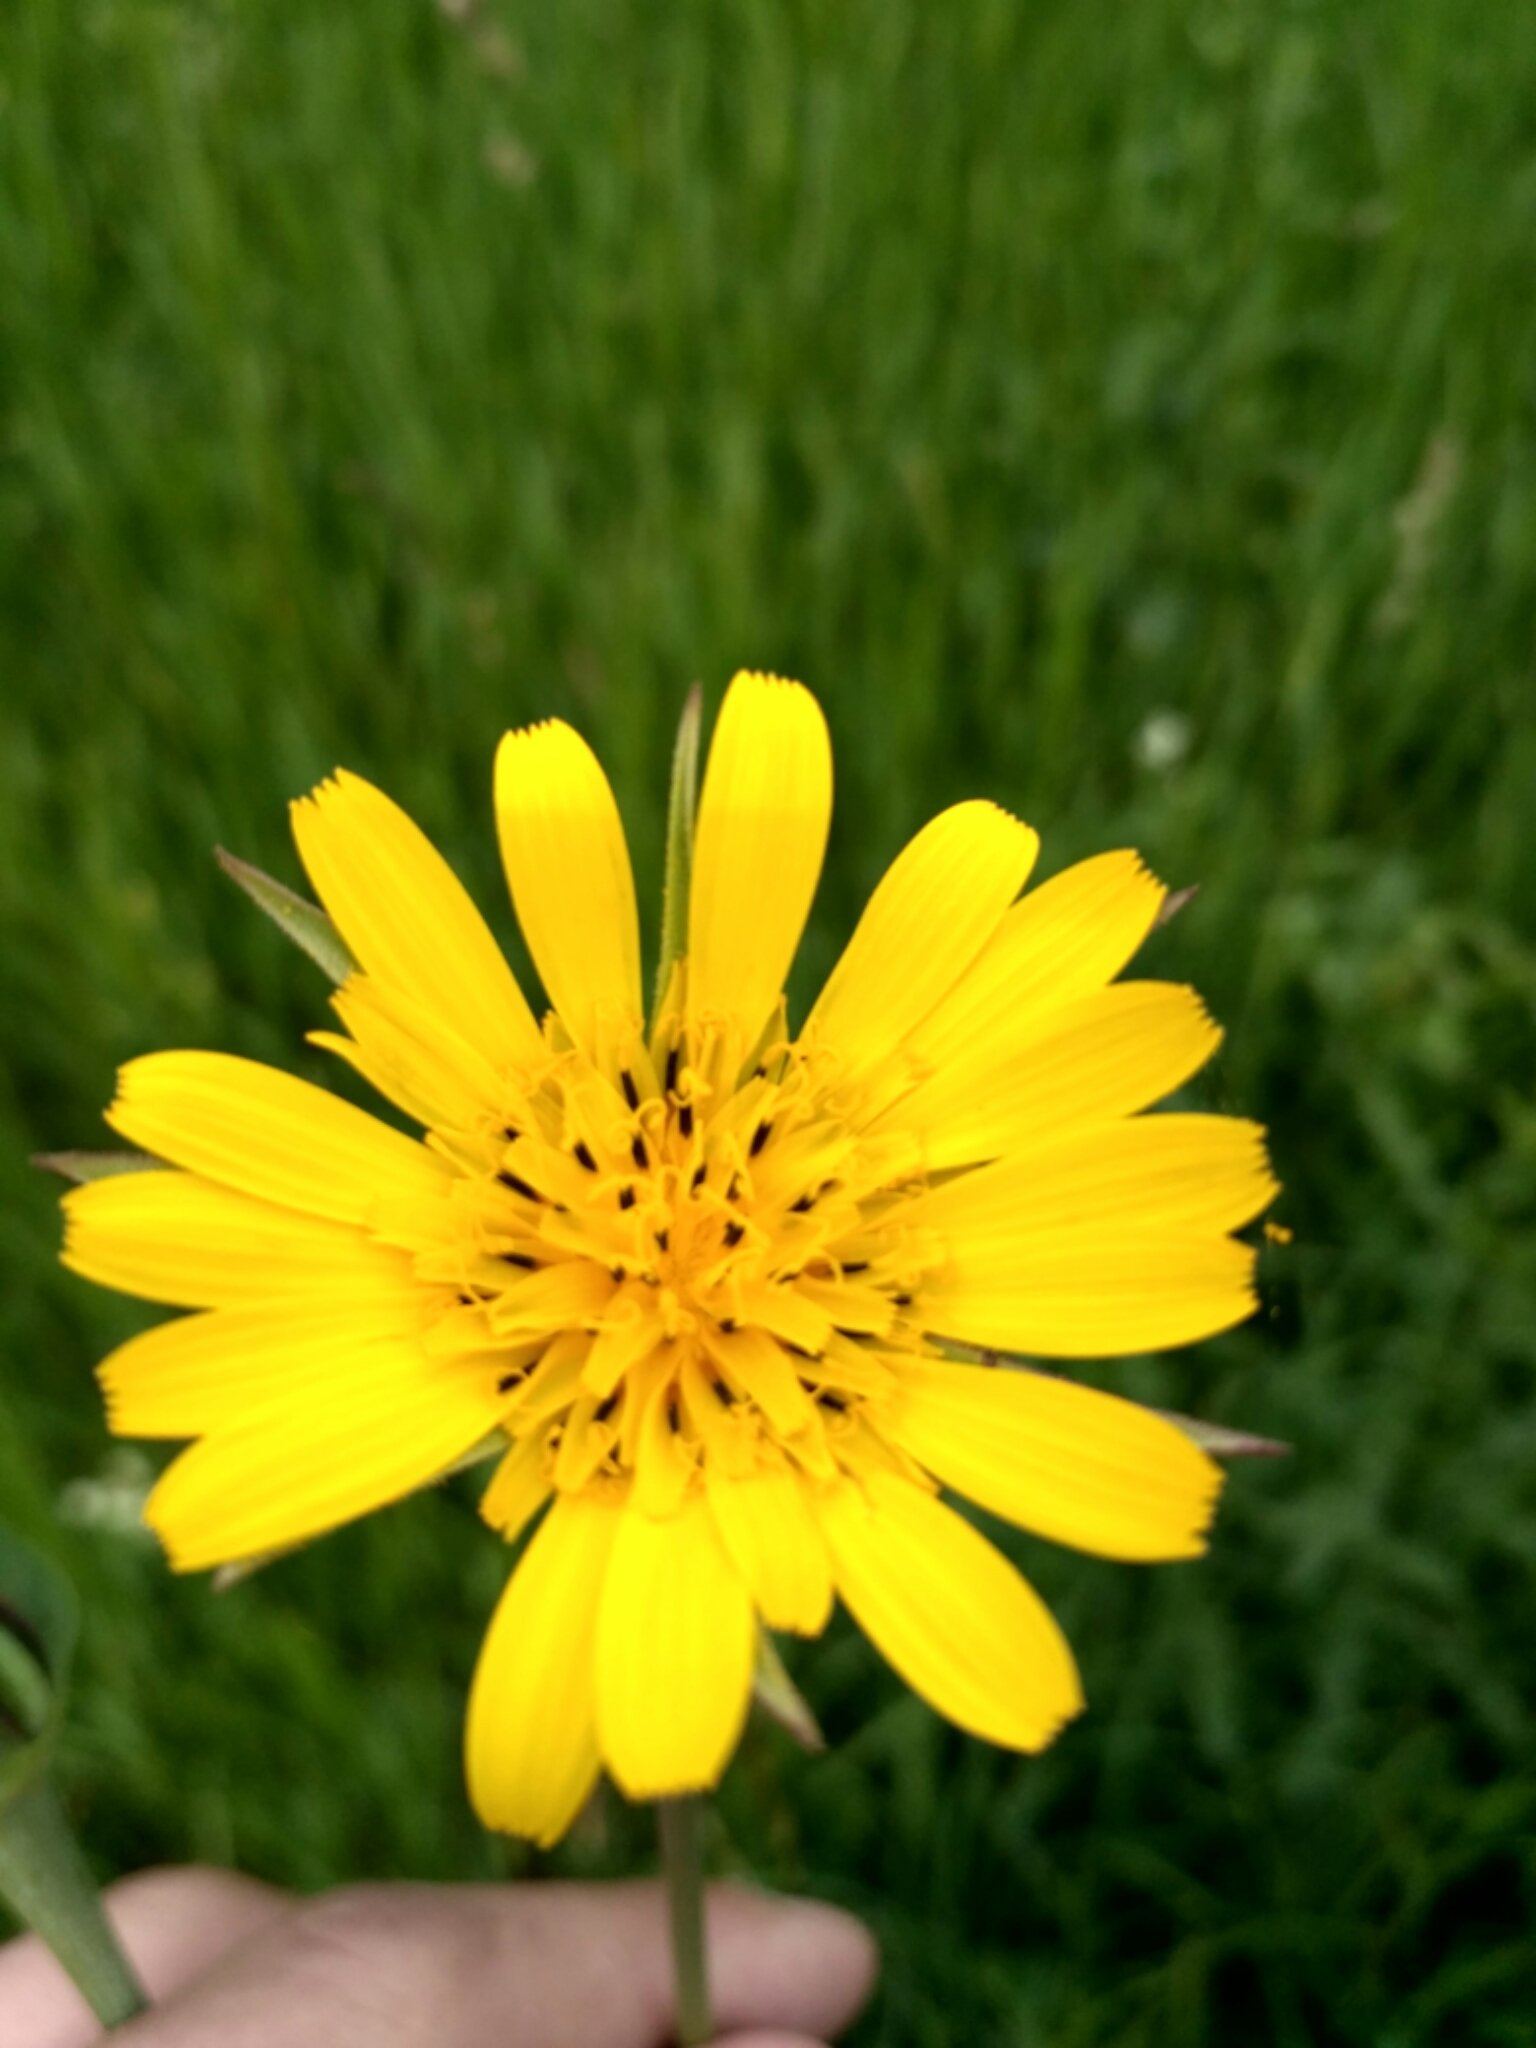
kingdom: Plantae
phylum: Tracheophyta
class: Magnoliopsida
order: Asterales
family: Asteraceae
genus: Tragopogon
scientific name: Tragopogon pratensis
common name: Goat's-beard
